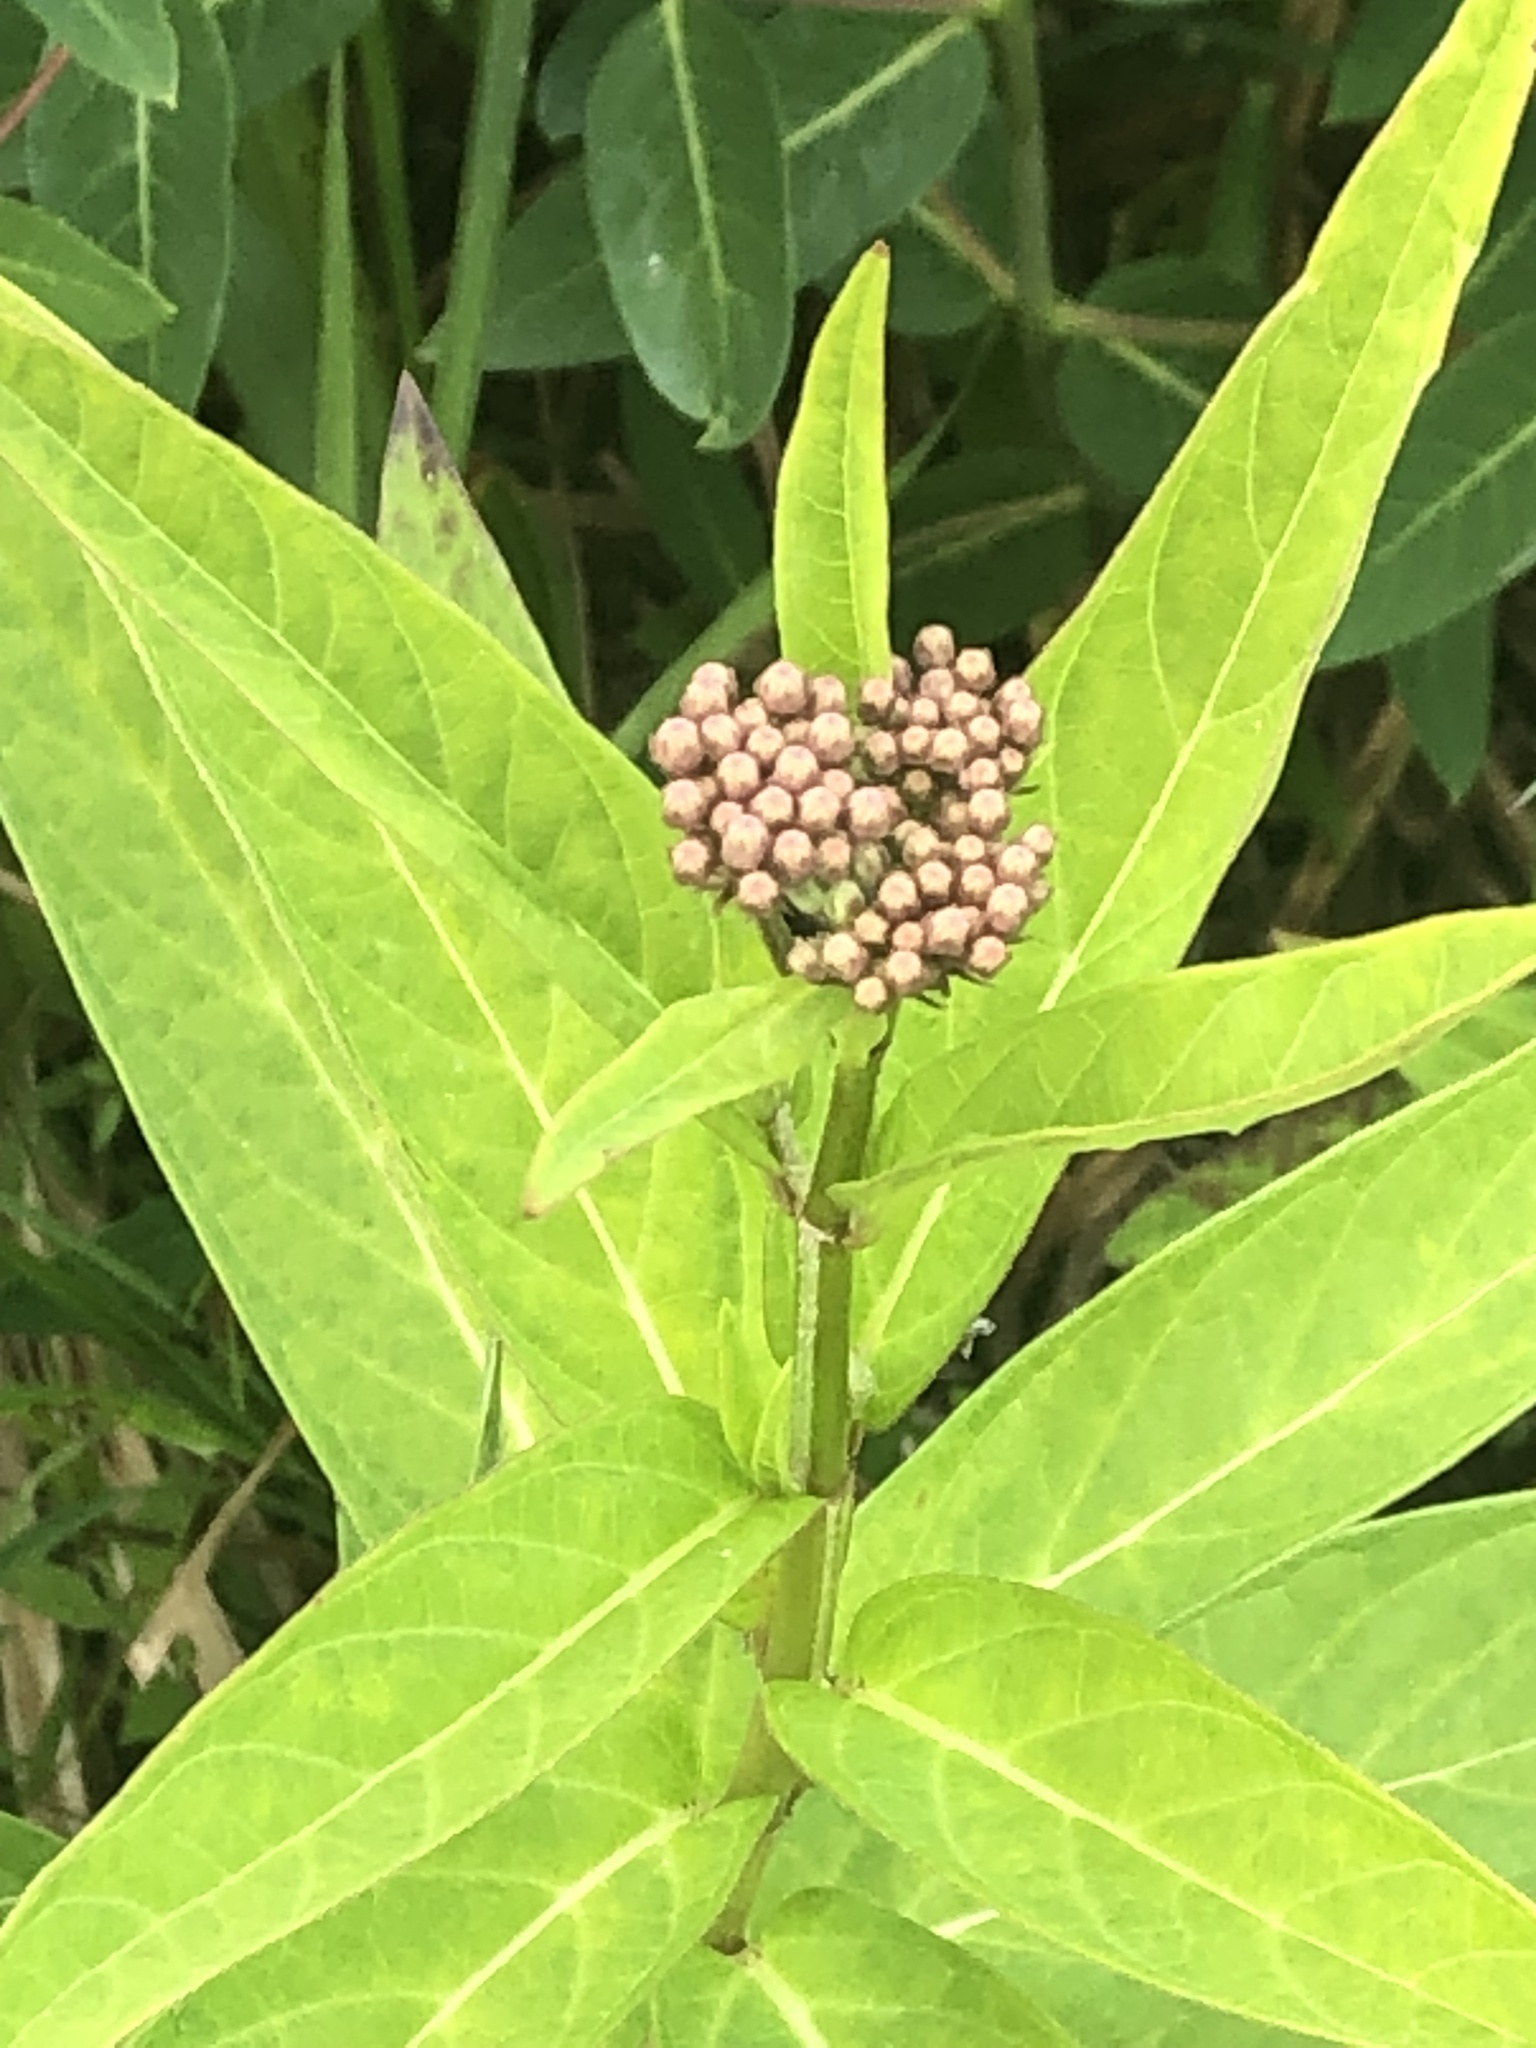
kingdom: Plantae
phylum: Tracheophyta
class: Magnoliopsida
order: Gentianales
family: Apocynaceae
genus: Asclepias
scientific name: Asclepias incarnata
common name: Swamp milkweed
